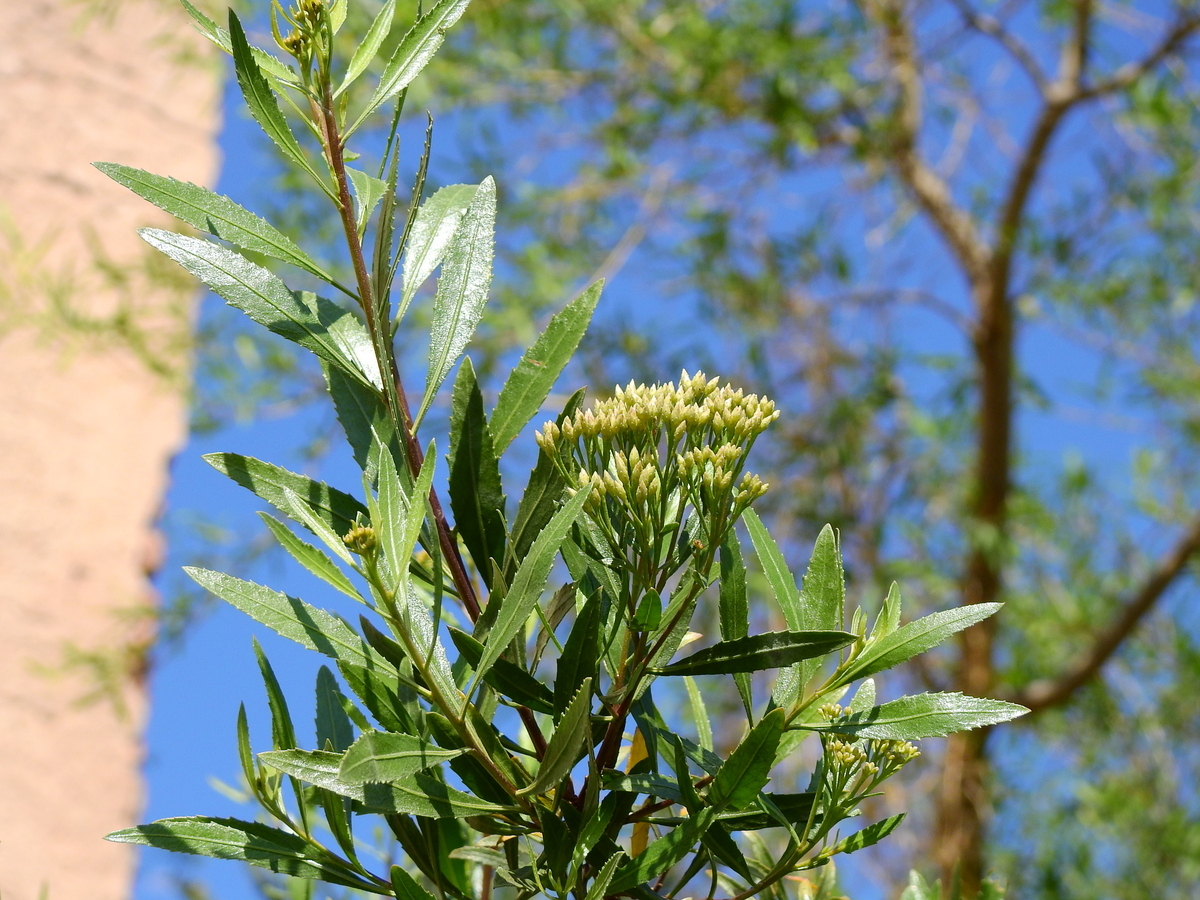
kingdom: Plantae
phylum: Tracheophyta
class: Magnoliopsida
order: Asterales
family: Asteraceae
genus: Tessaria
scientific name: Tessaria dodonaeifolia
